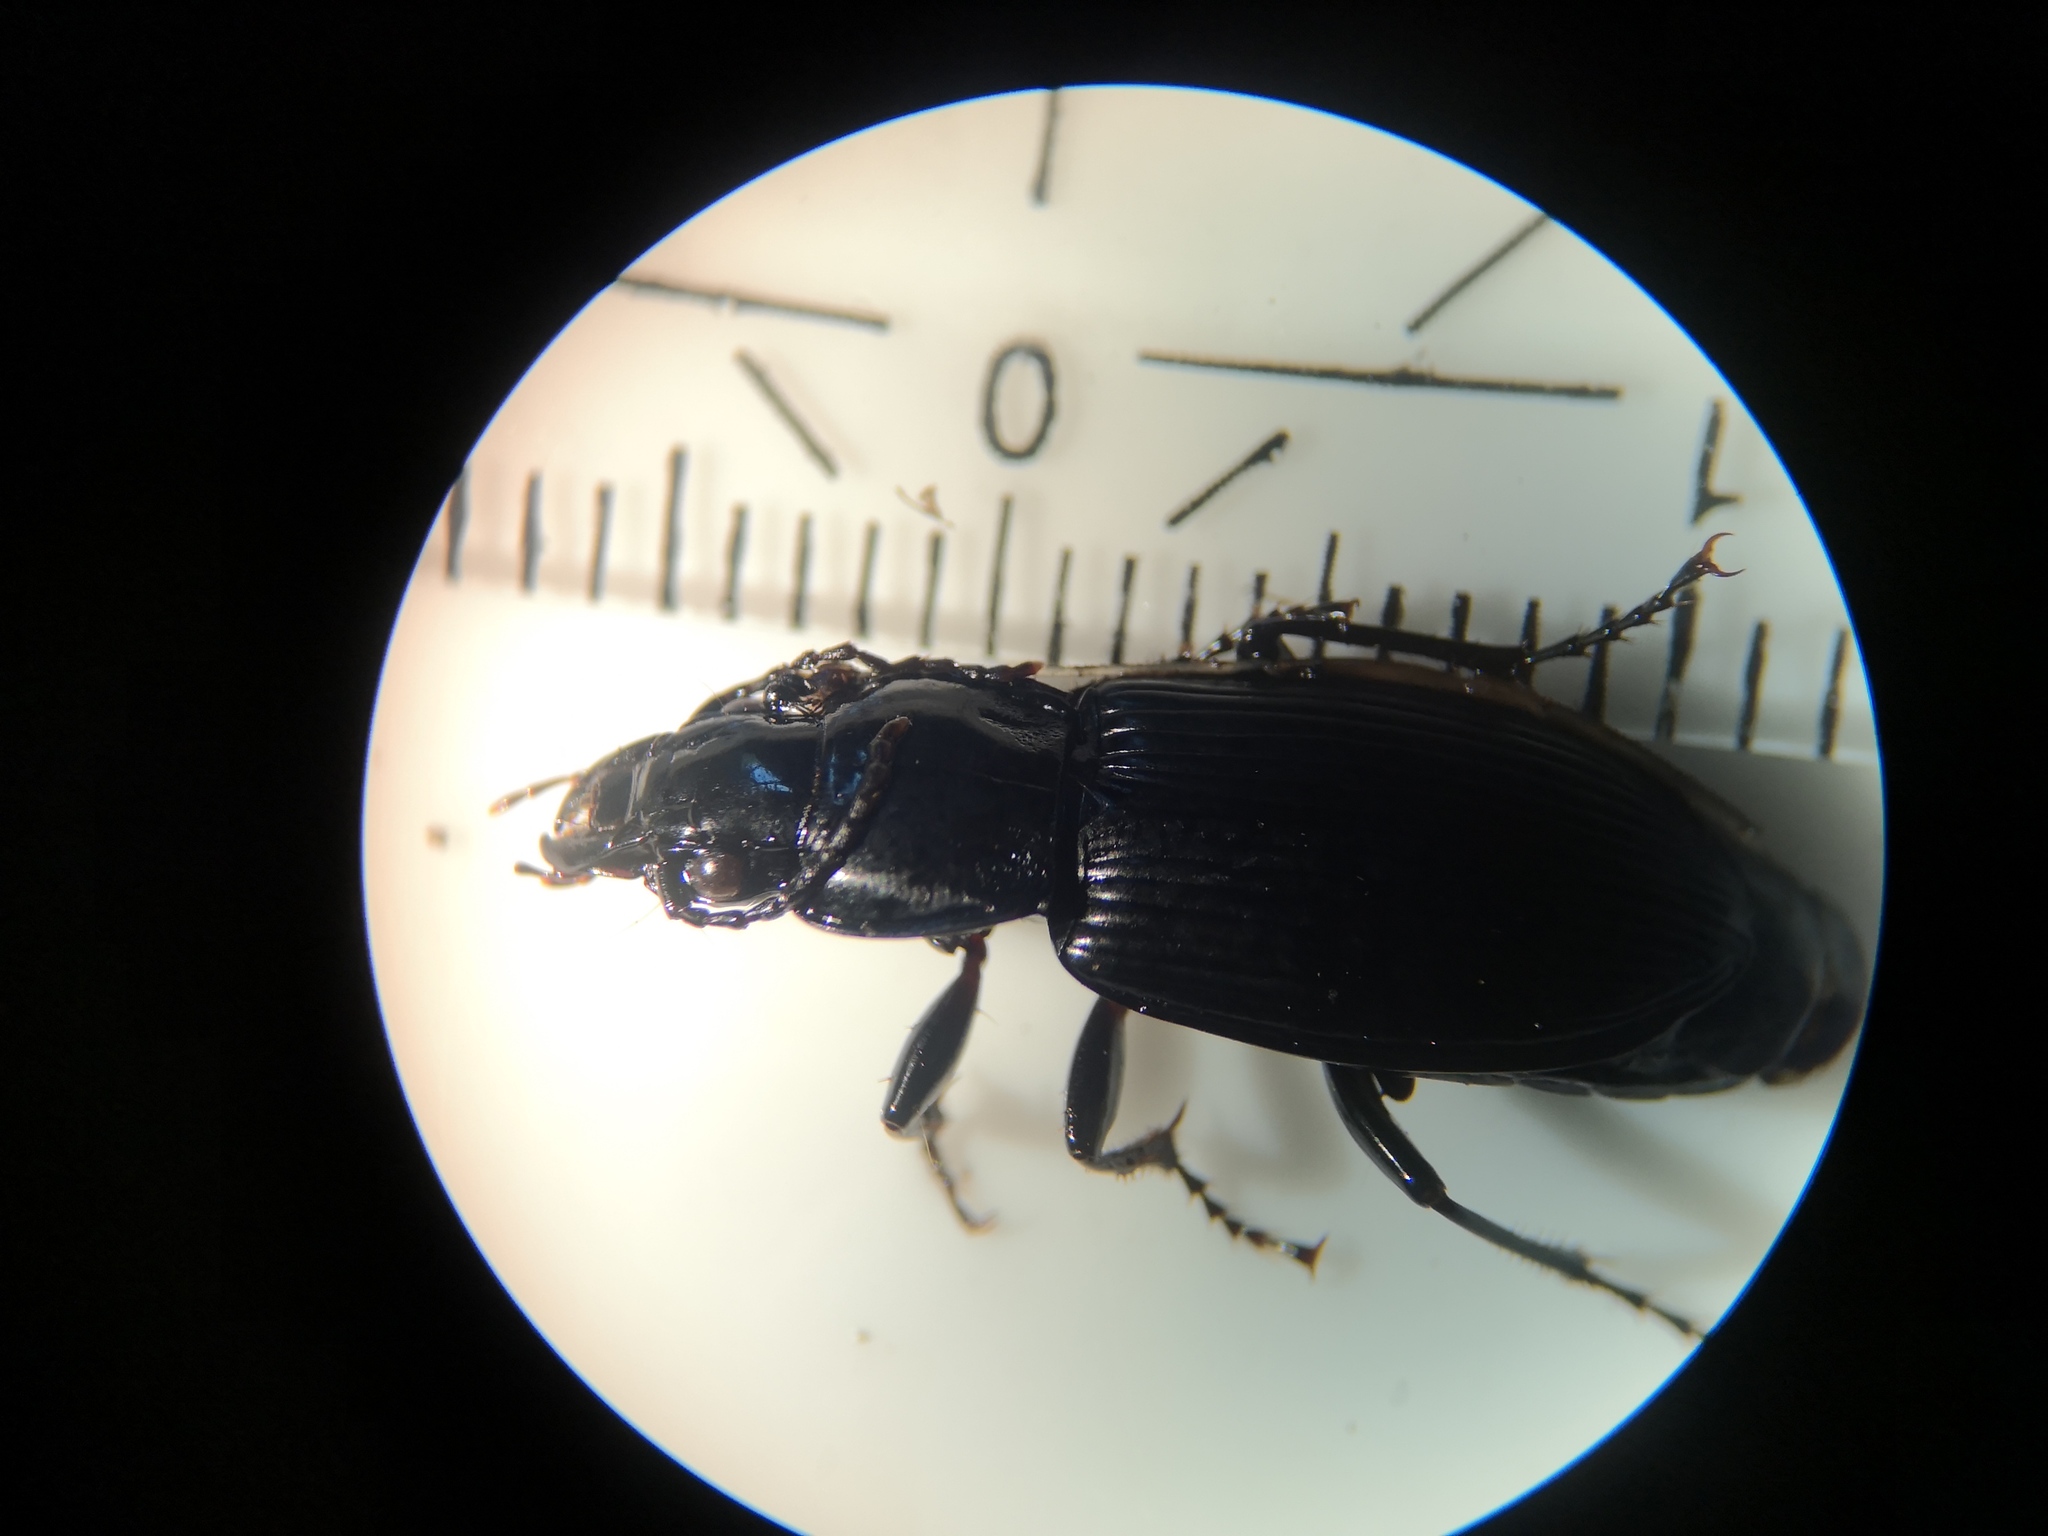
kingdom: Animalia
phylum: Arthropoda
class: Insecta
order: Coleoptera
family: Carabidae
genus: Pterostichus
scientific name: Pterostichus melanarius
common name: European dark harp ground beetle
